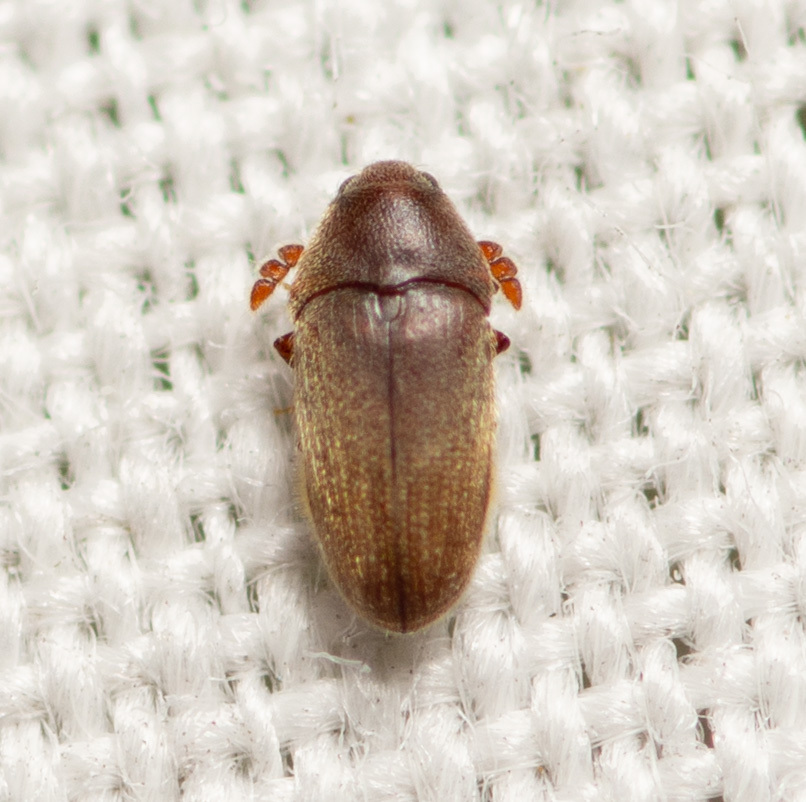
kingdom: Animalia
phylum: Arthropoda
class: Insecta
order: Coleoptera
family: Throscidae
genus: Trixagus
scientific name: Trixagus chevrolati
